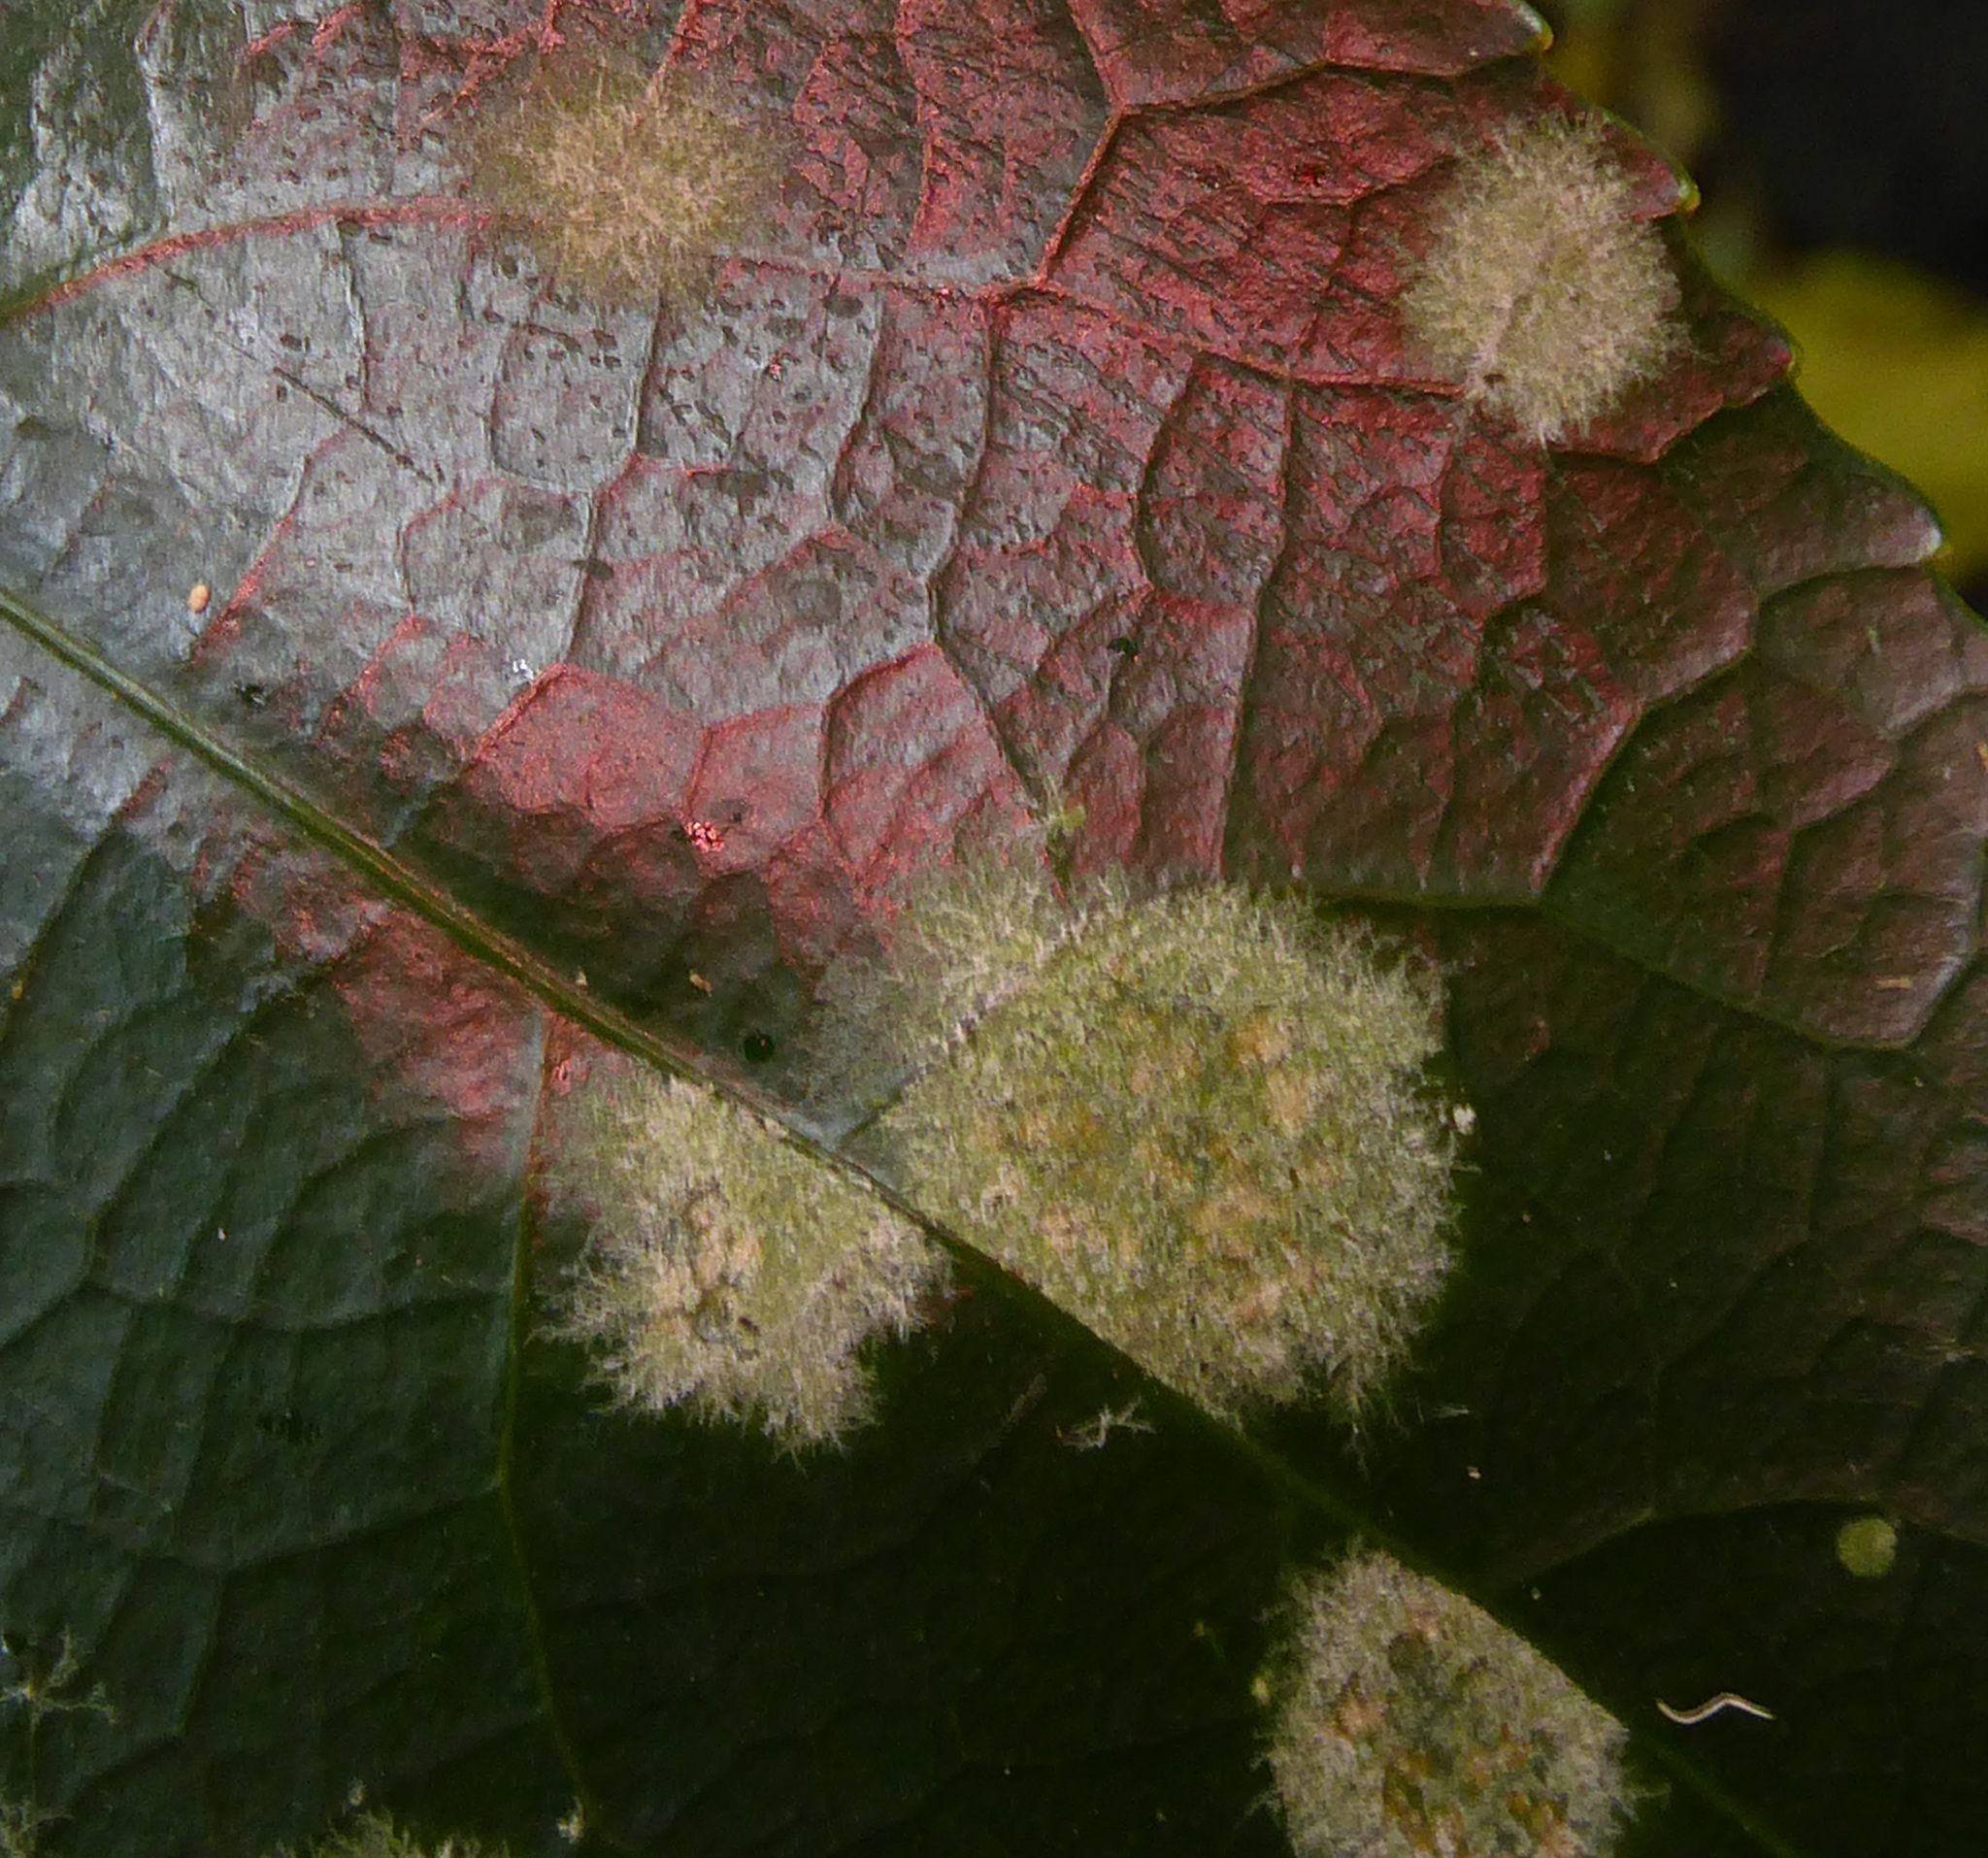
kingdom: Plantae
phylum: Chlorophyta
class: Ulvophyceae
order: Trentepohliales
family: Trentepohliaceae
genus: Cephaleuros
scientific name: Cephaleuros
